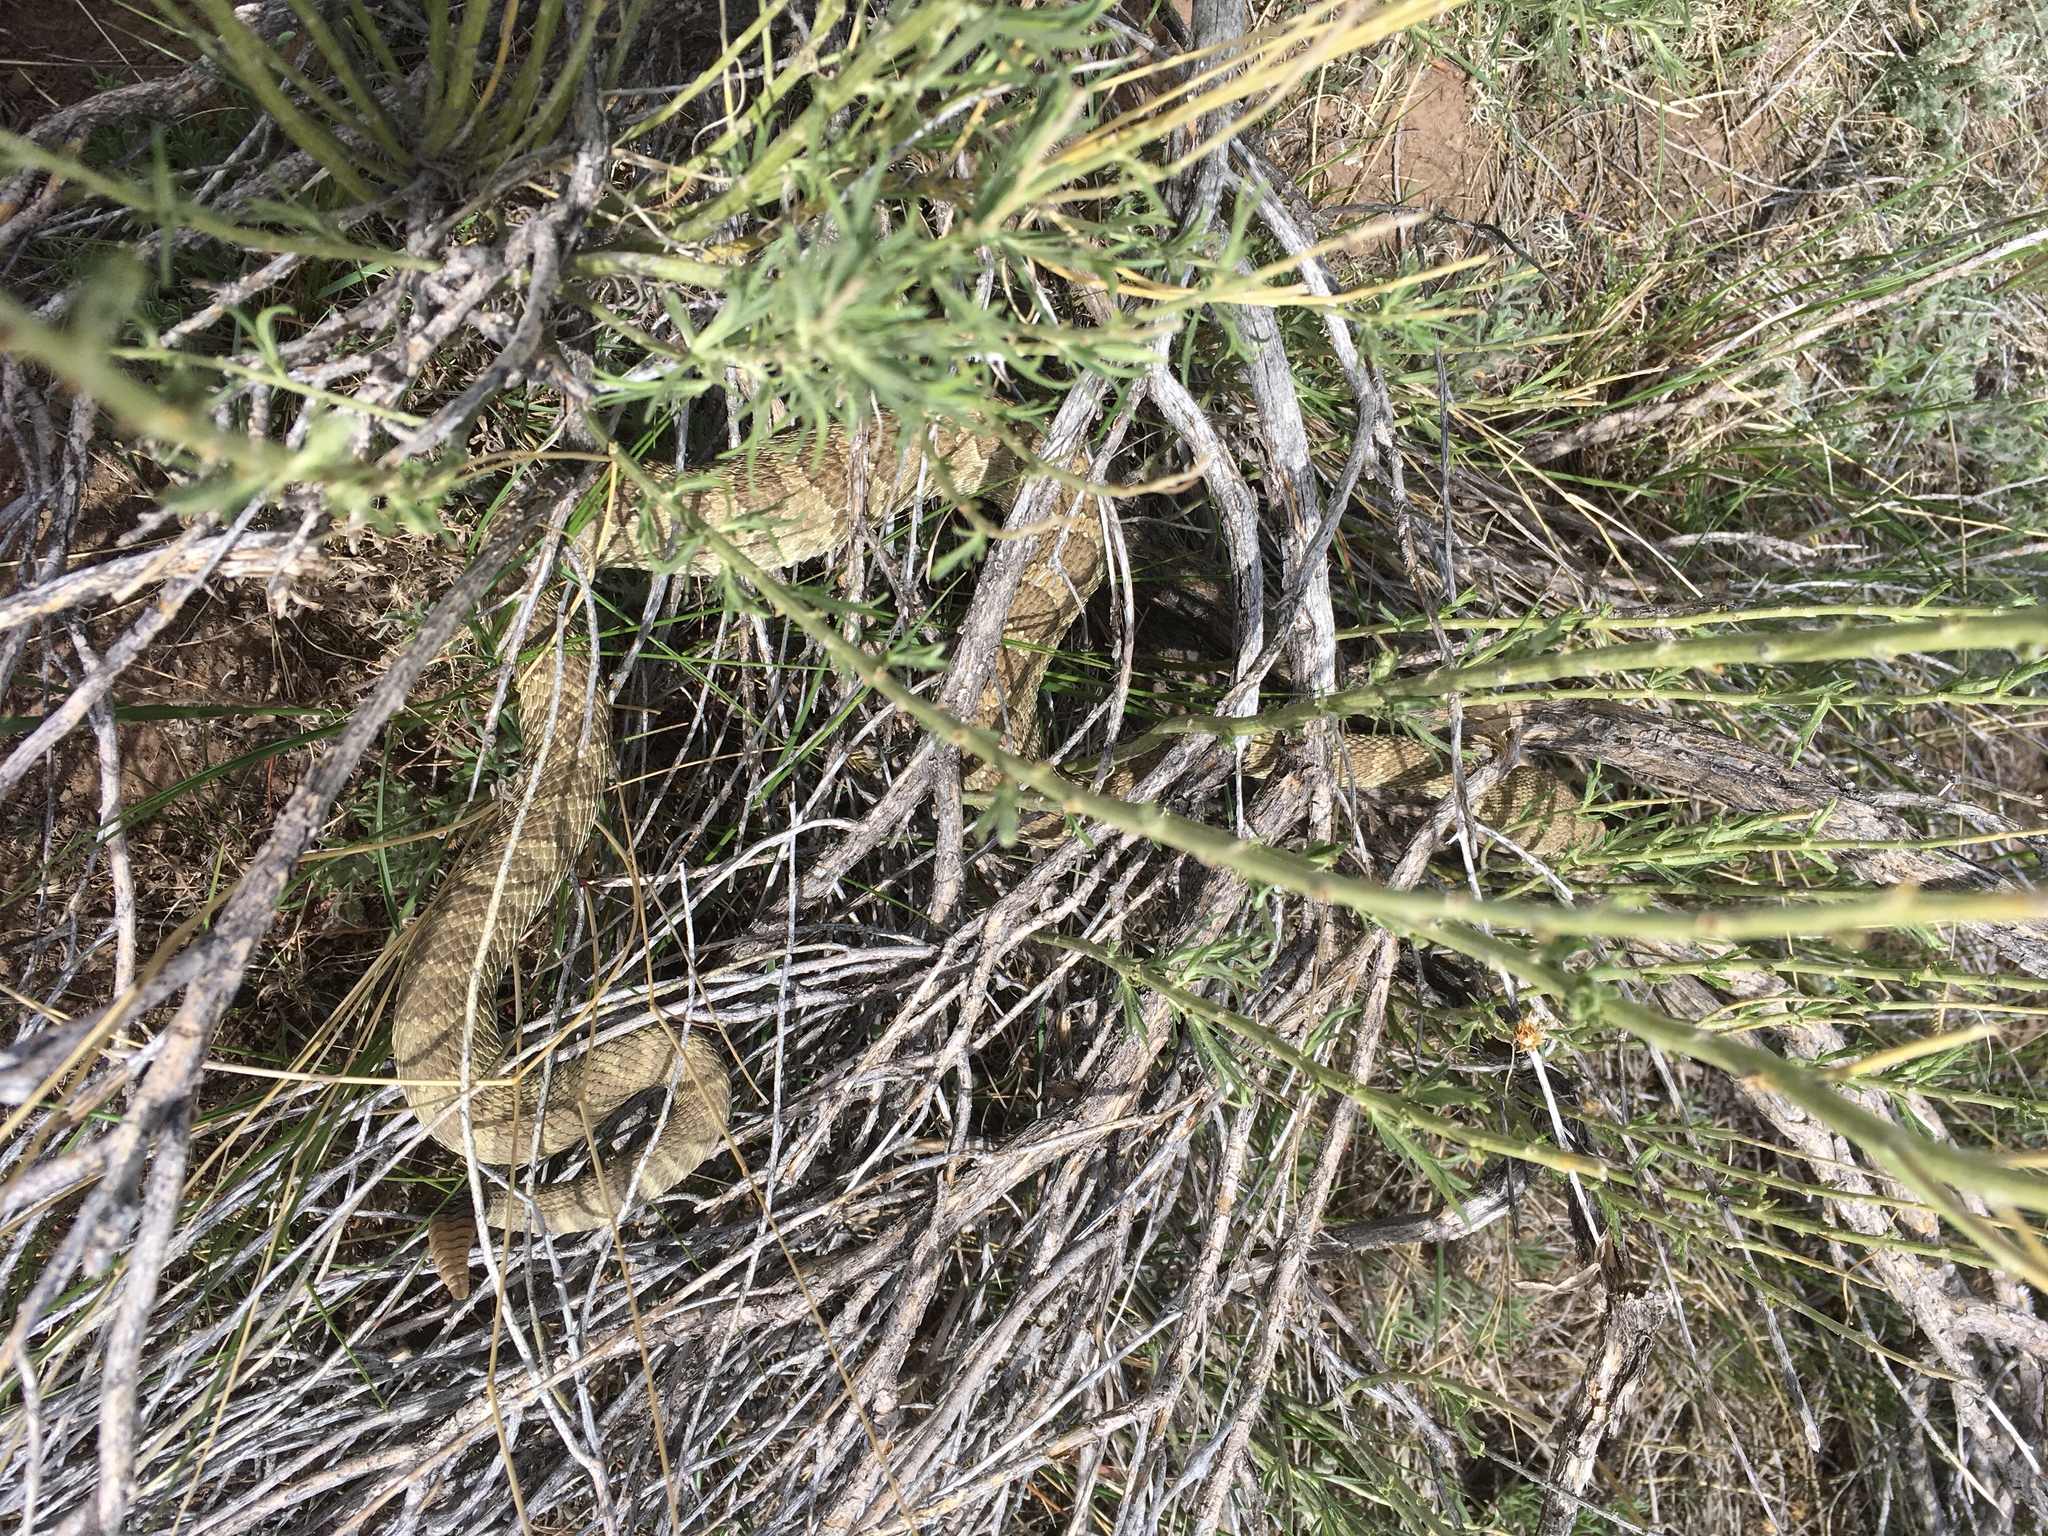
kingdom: Animalia
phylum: Chordata
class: Squamata
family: Viperidae
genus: Crotalus
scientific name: Crotalus viridis
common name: Prairie rattlesnake
